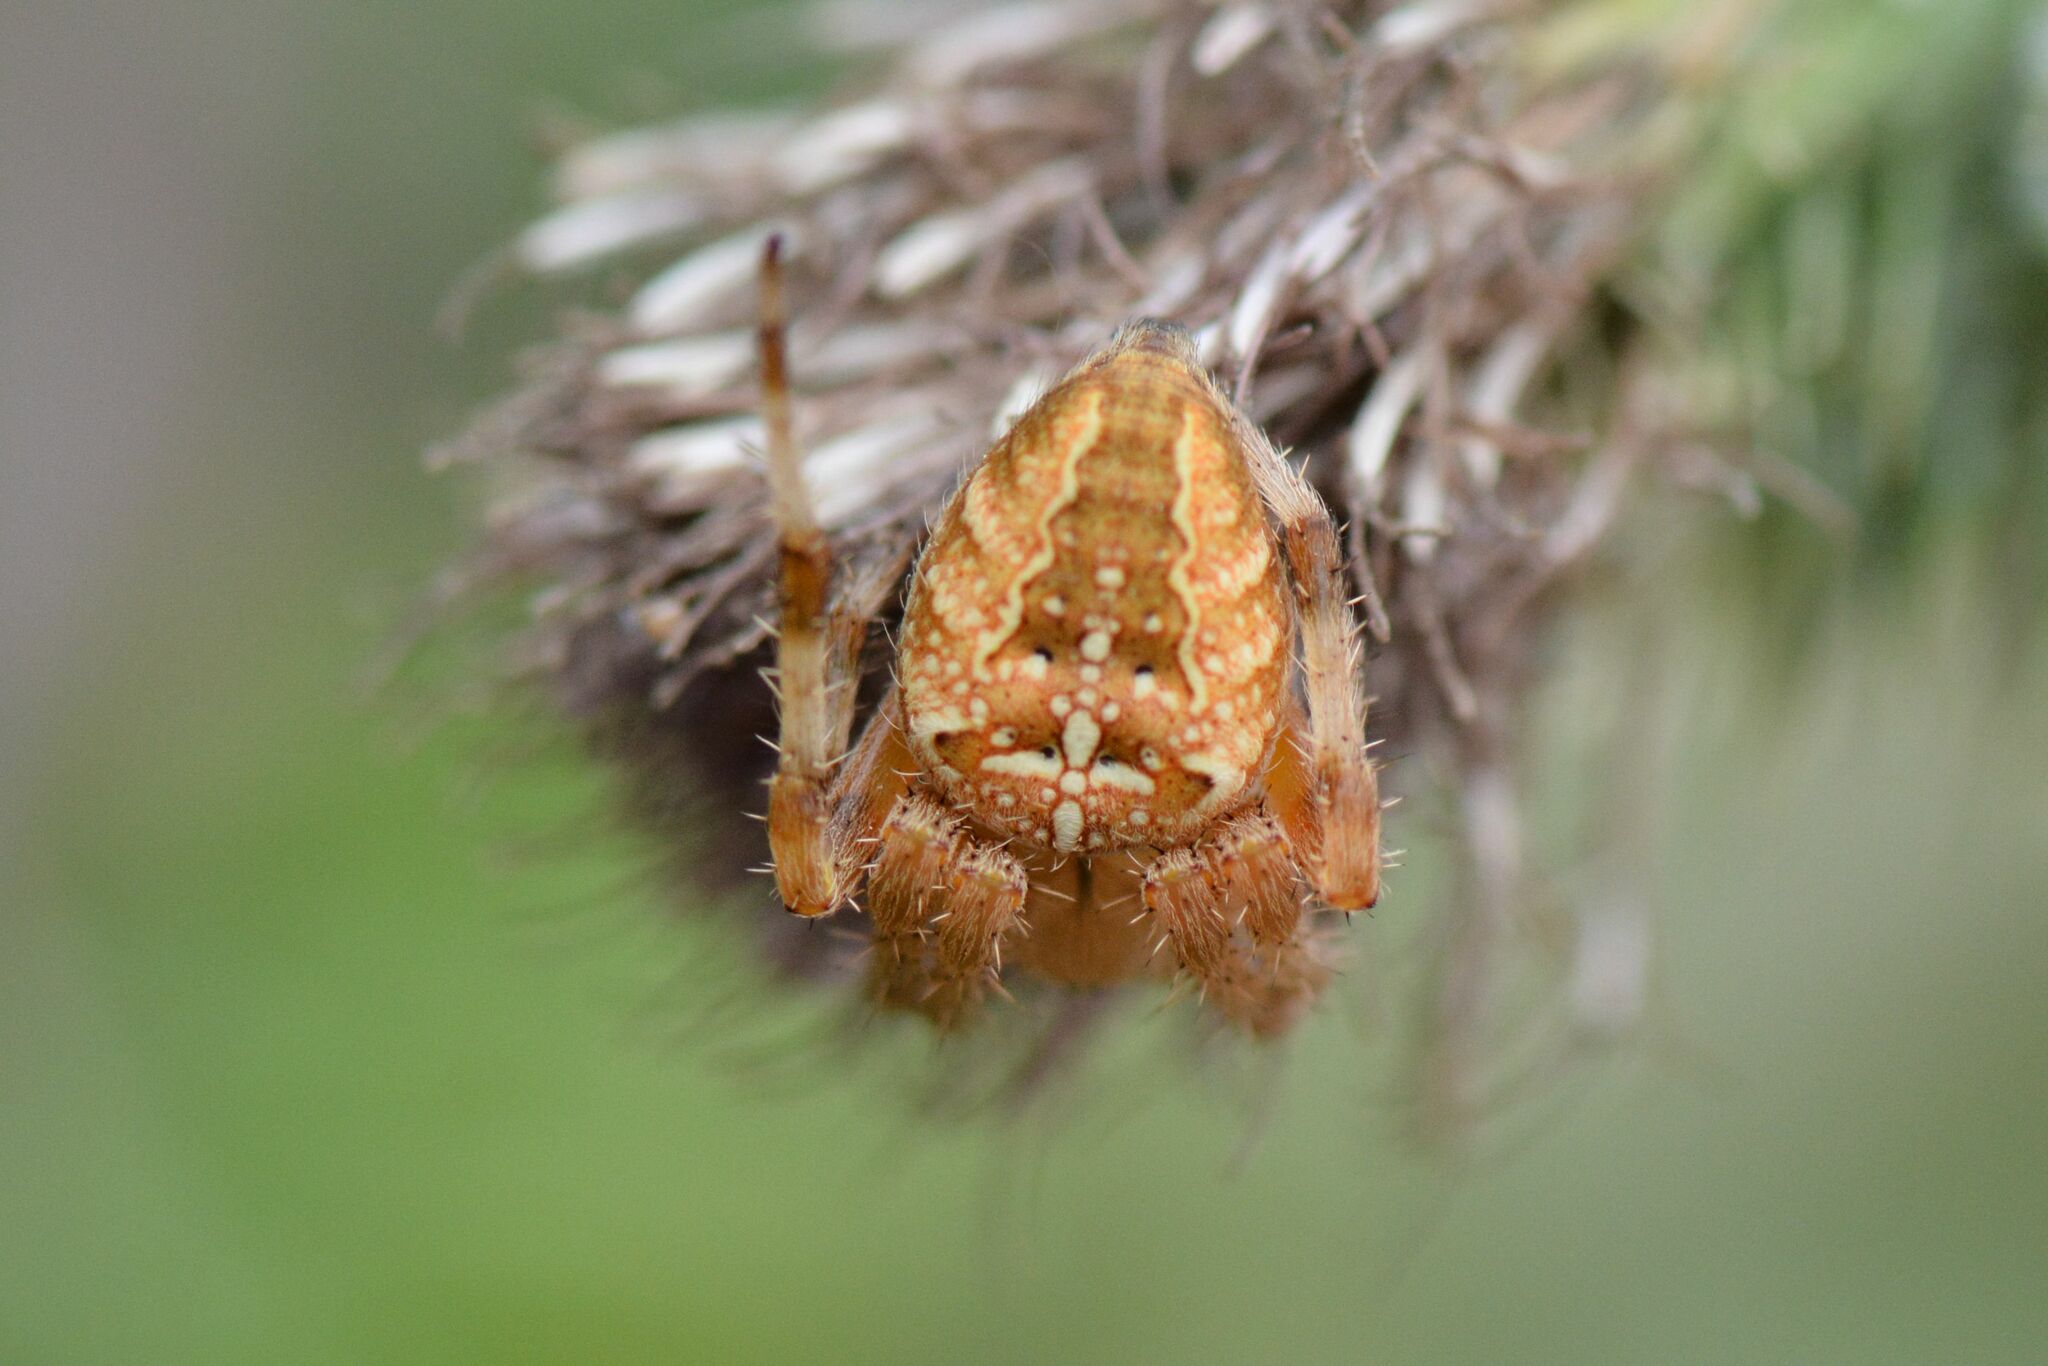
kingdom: Animalia
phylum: Arthropoda
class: Arachnida
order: Araneae
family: Araneidae
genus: Araneus
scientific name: Araneus diadematus
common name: Cross orbweaver
